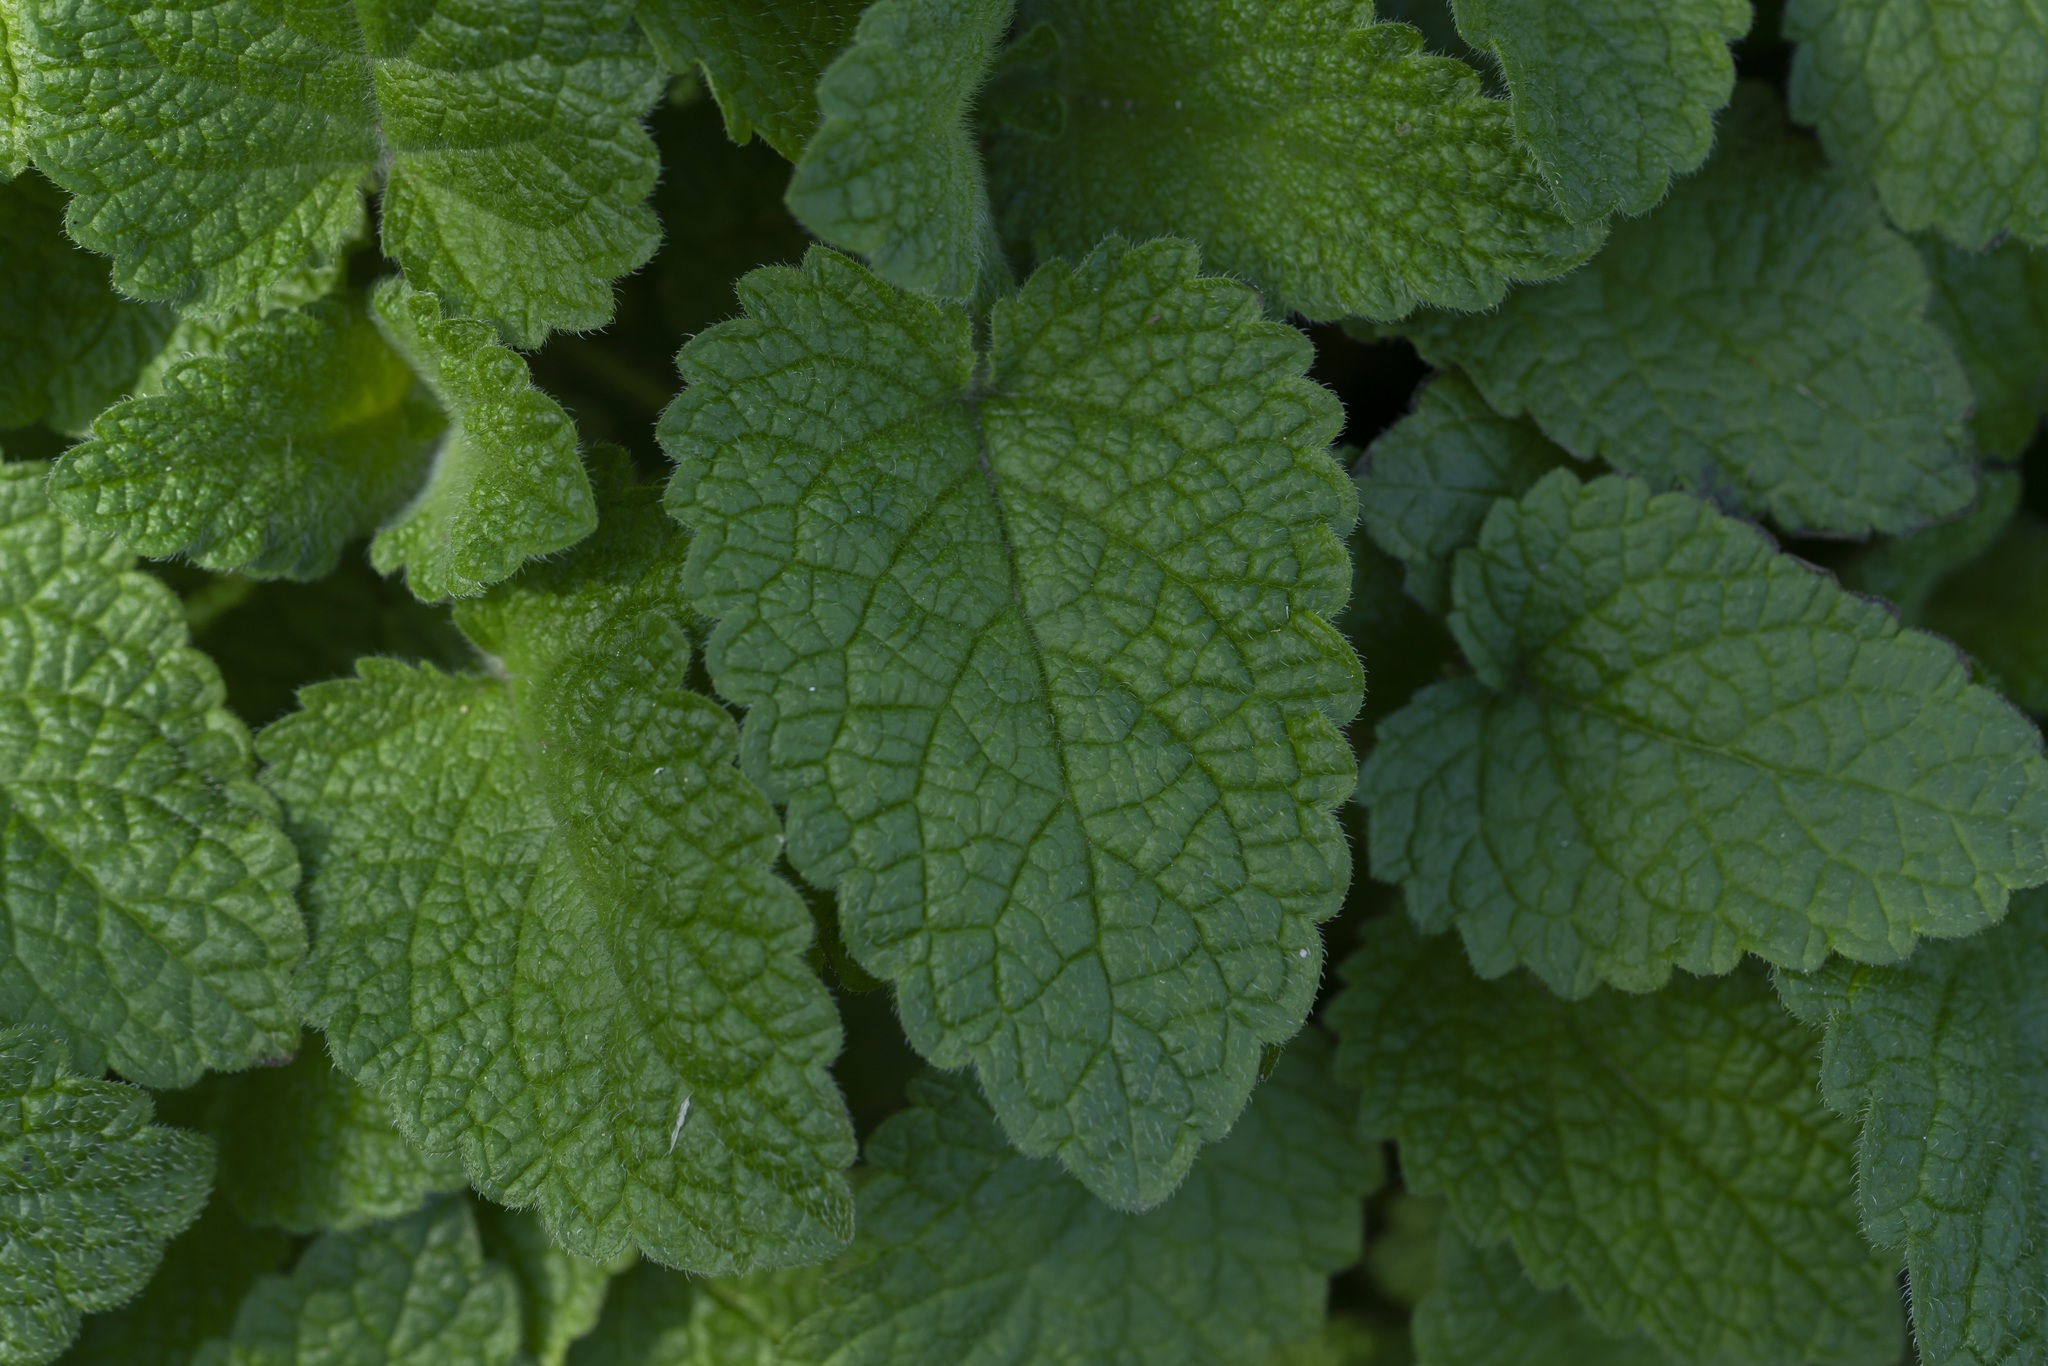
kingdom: Plantae
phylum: Tracheophyta
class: Magnoliopsida
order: Lamiales
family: Lamiaceae
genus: Melissa
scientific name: Melissa officinalis
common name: Balm
